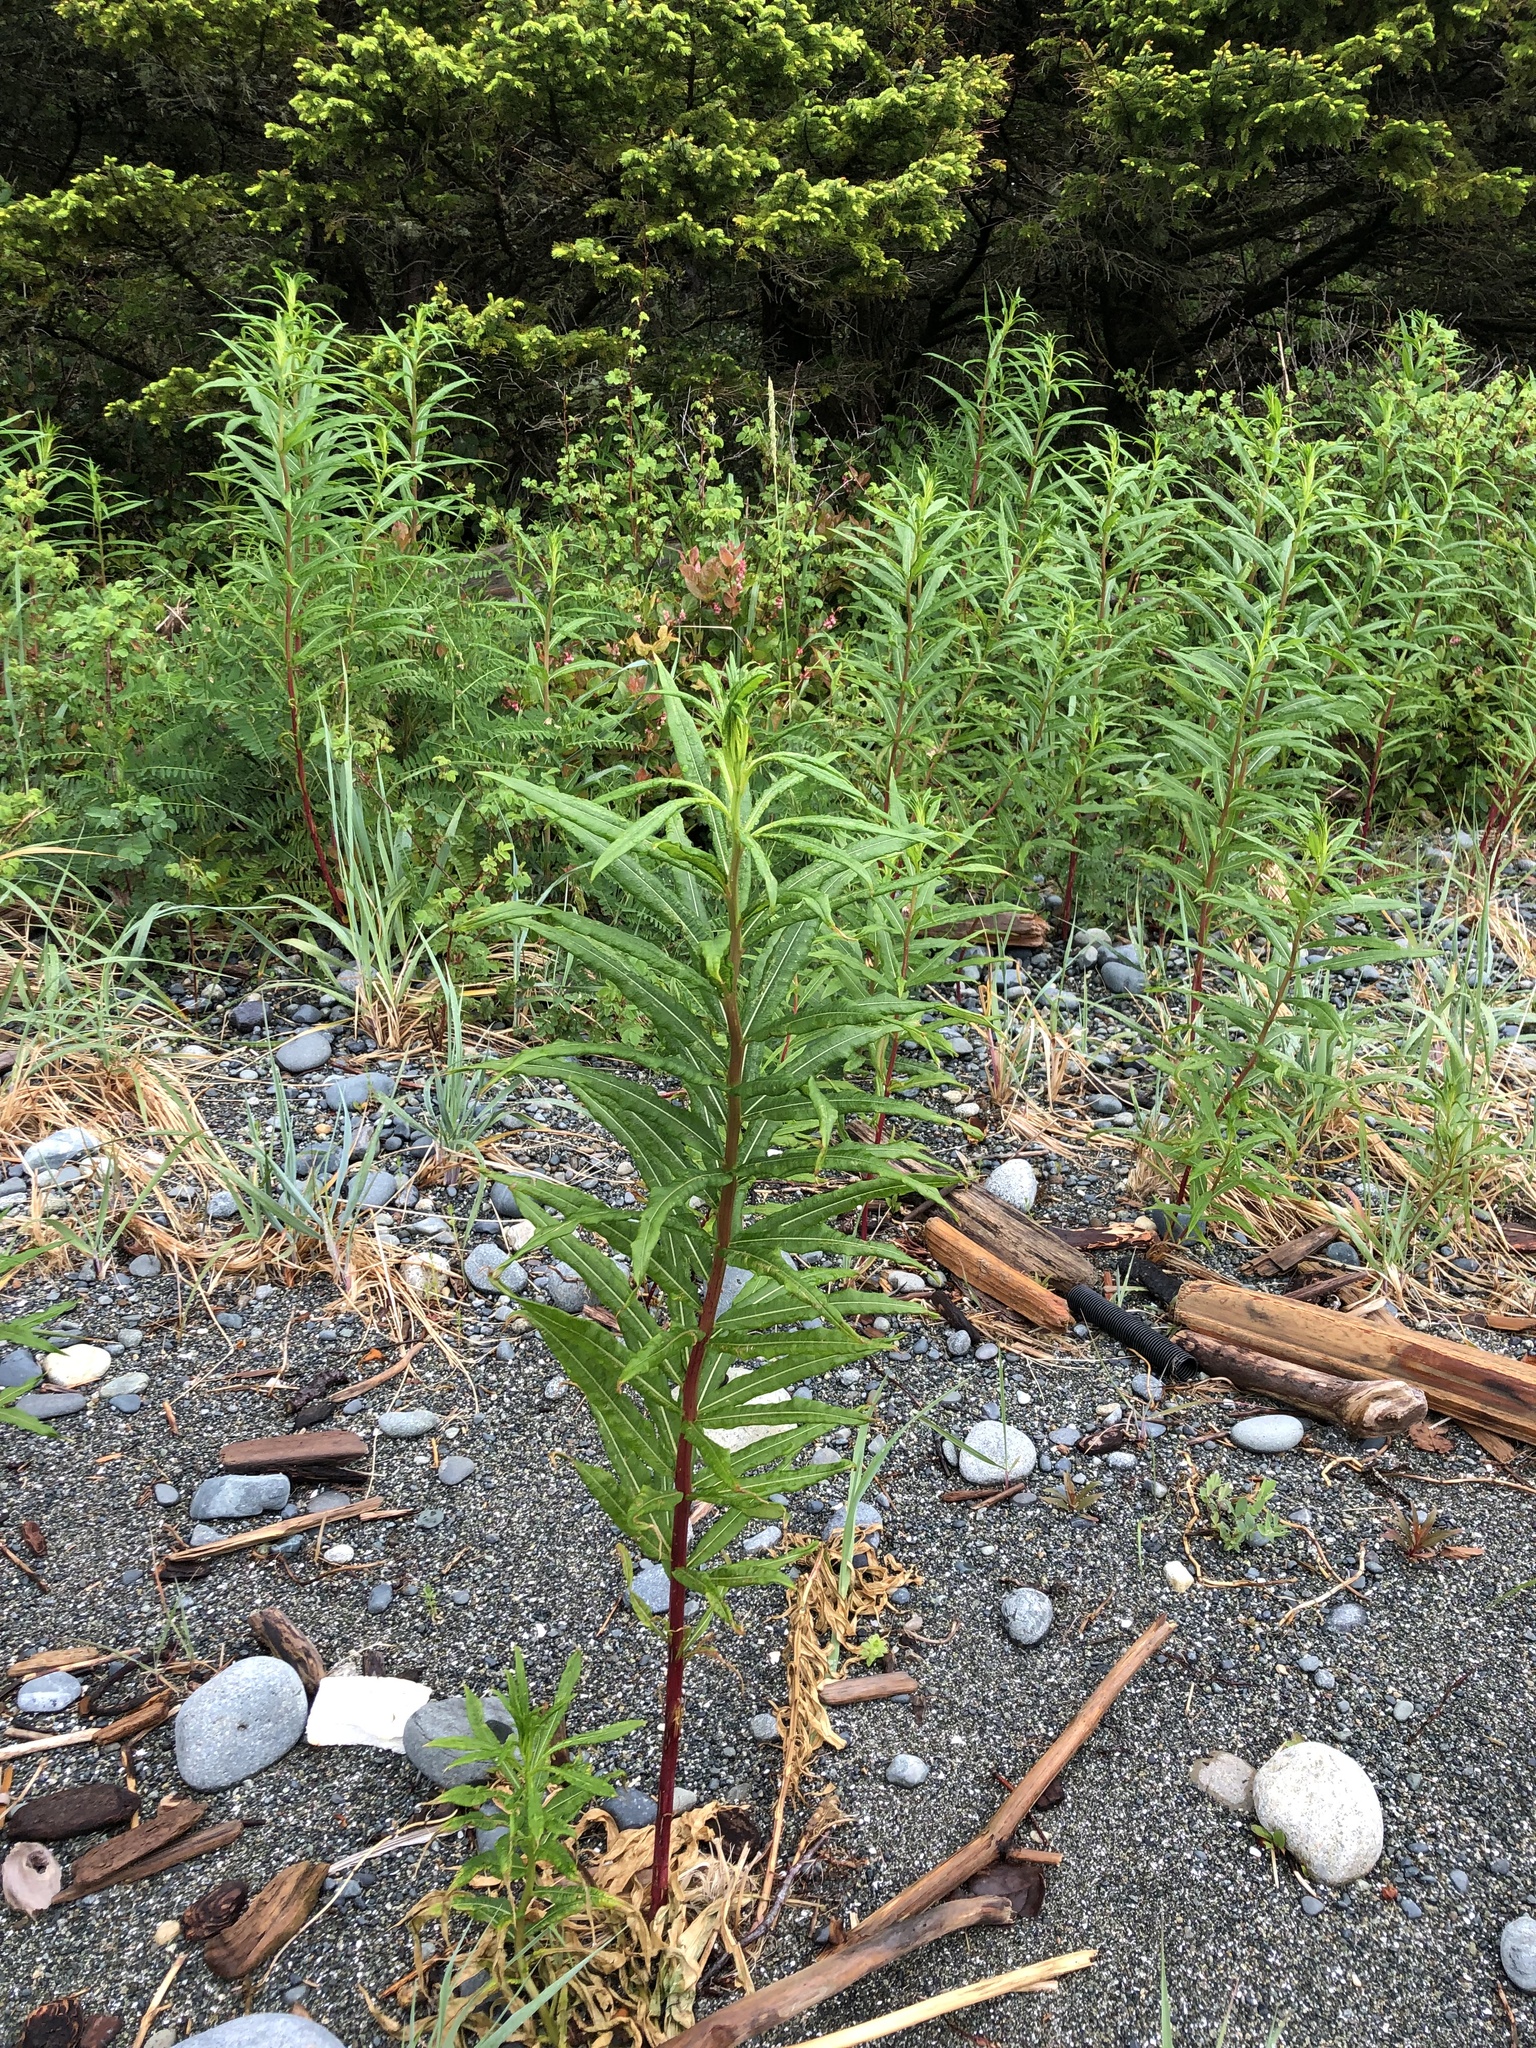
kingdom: Plantae
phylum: Tracheophyta
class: Magnoliopsida
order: Myrtales
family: Onagraceae
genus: Chamaenerion
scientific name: Chamaenerion angustifolium
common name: Fireweed
